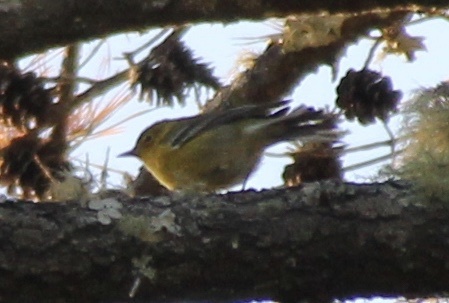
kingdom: Animalia
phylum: Chordata
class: Aves
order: Passeriformes
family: Parulidae
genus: Setophaga
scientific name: Setophaga pinus
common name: Pine warbler
